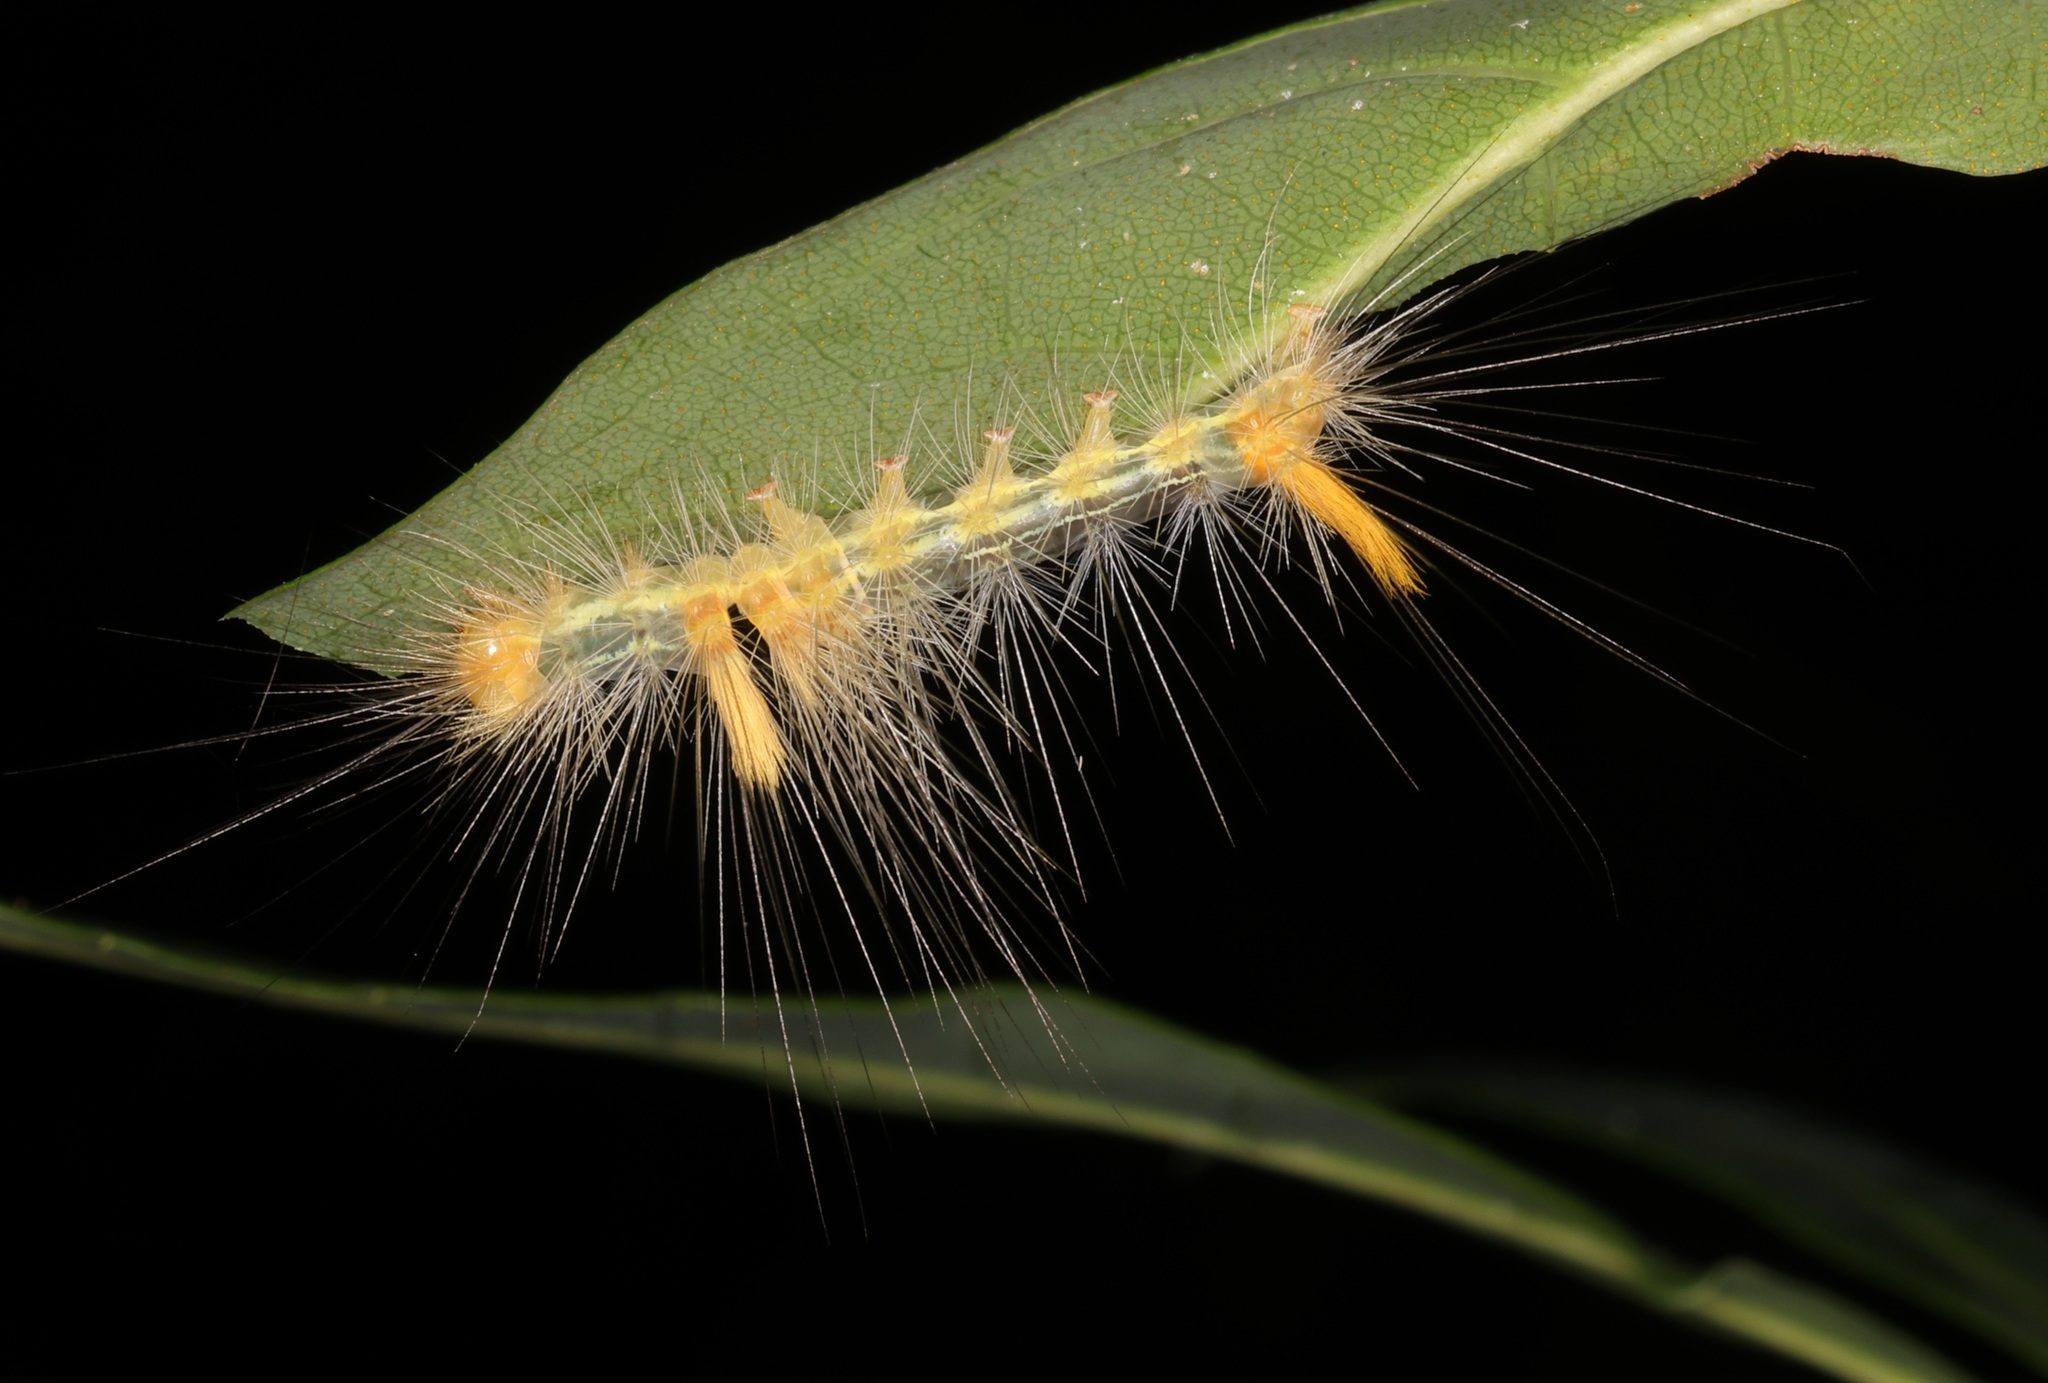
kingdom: Animalia
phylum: Arthropoda
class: Insecta
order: Lepidoptera
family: Erebidae
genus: Calliteara
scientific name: Calliteara grotei
